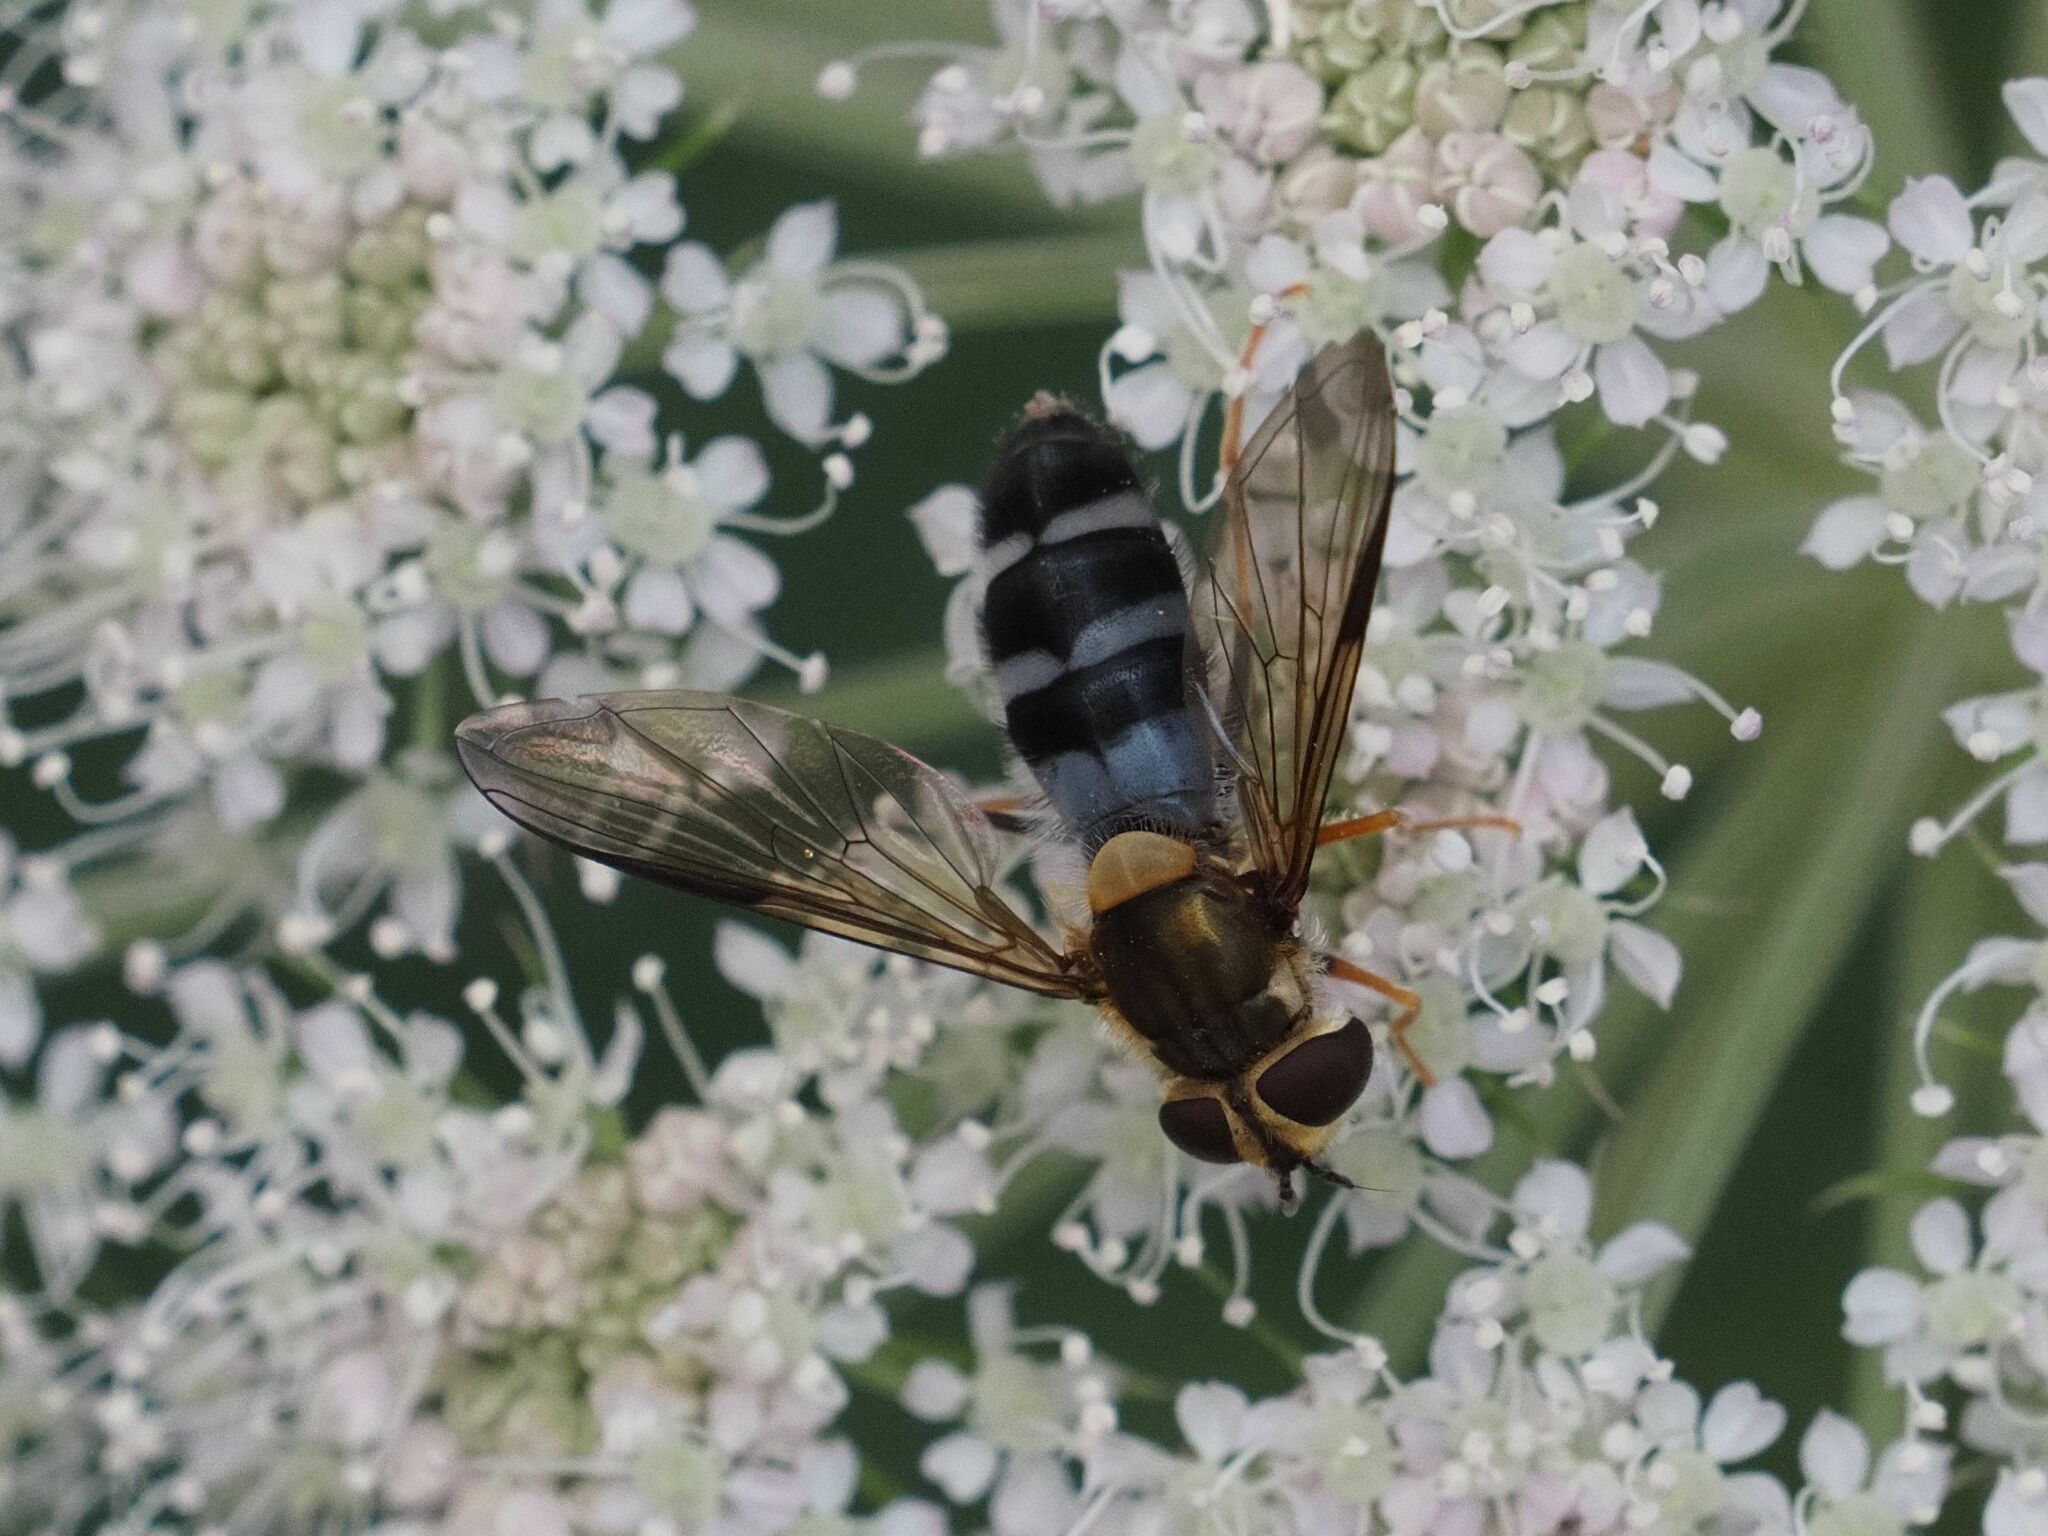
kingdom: Animalia
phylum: Arthropoda
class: Insecta
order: Diptera
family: Syrphidae
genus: Leucozona
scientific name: Leucozona glaucia
